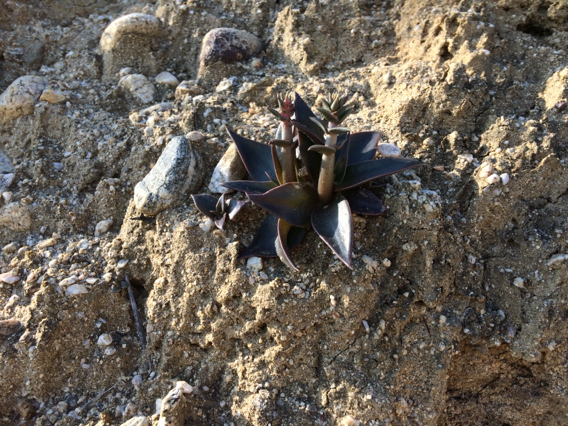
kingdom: Plantae
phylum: Tracheophyta
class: Magnoliopsida
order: Saxifragales
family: Crassulaceae
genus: Dudleya
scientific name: Dudleya
